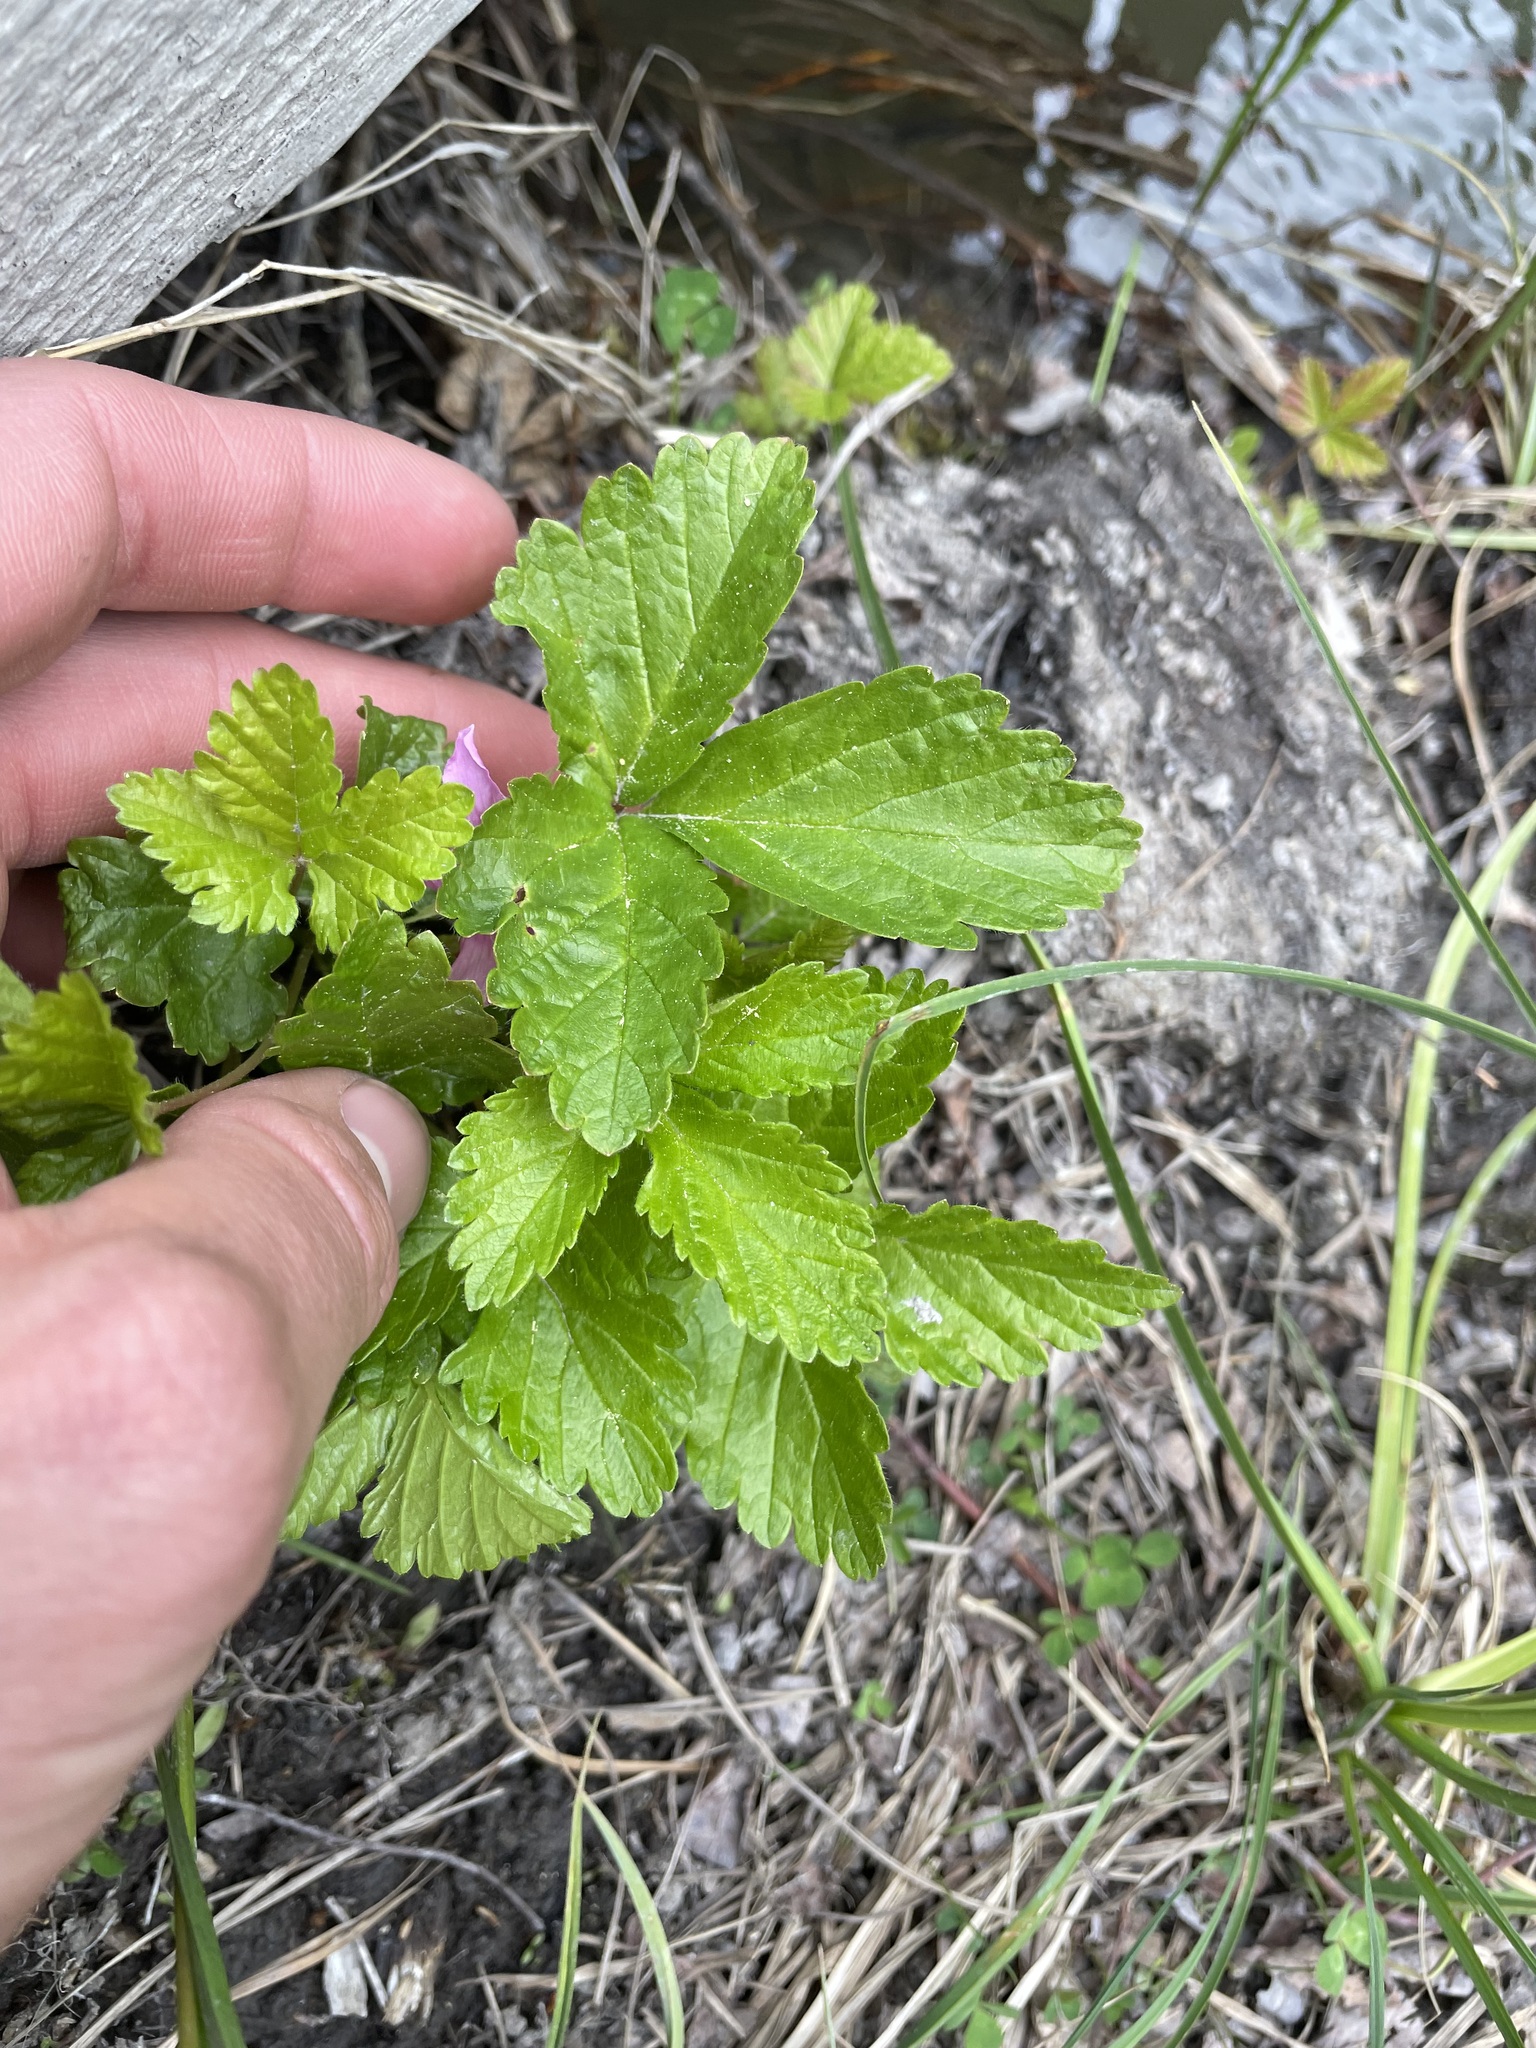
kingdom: Plantae
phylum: Tracheophyta
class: Magnoliopsida
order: Rosales
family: Rosaceae
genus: Rubus
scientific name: Rubus arcticus
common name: Arctic bramble
